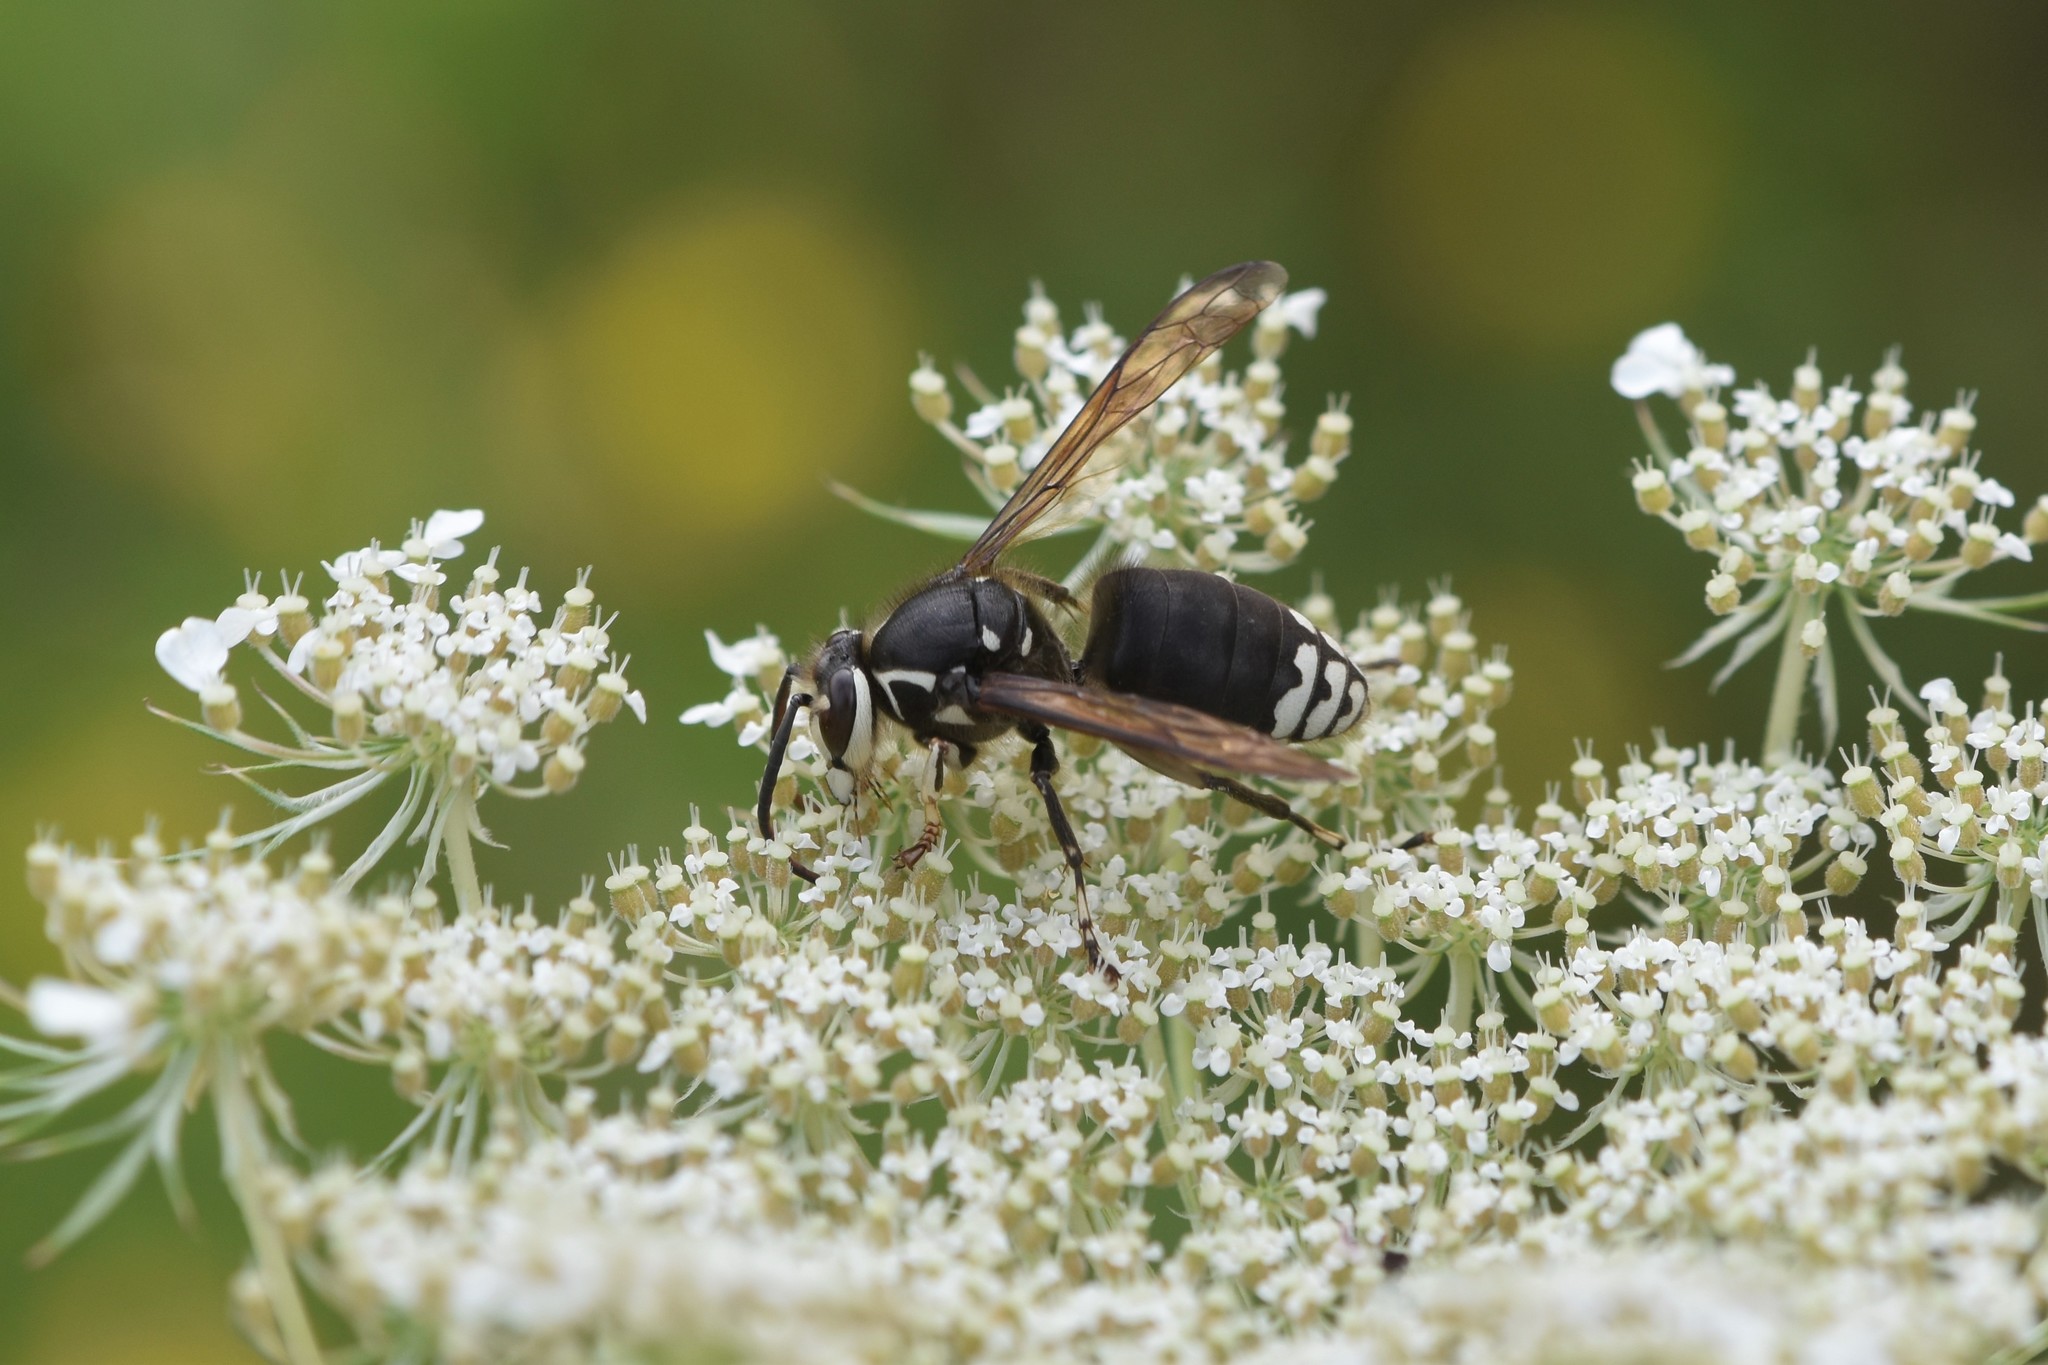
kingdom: Animalia
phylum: Arthropoda
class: Insecta
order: Hymenoptera
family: Vespidae
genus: Dolichovespula
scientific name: Dolichovespula maculata
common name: Bald-faced hornet
